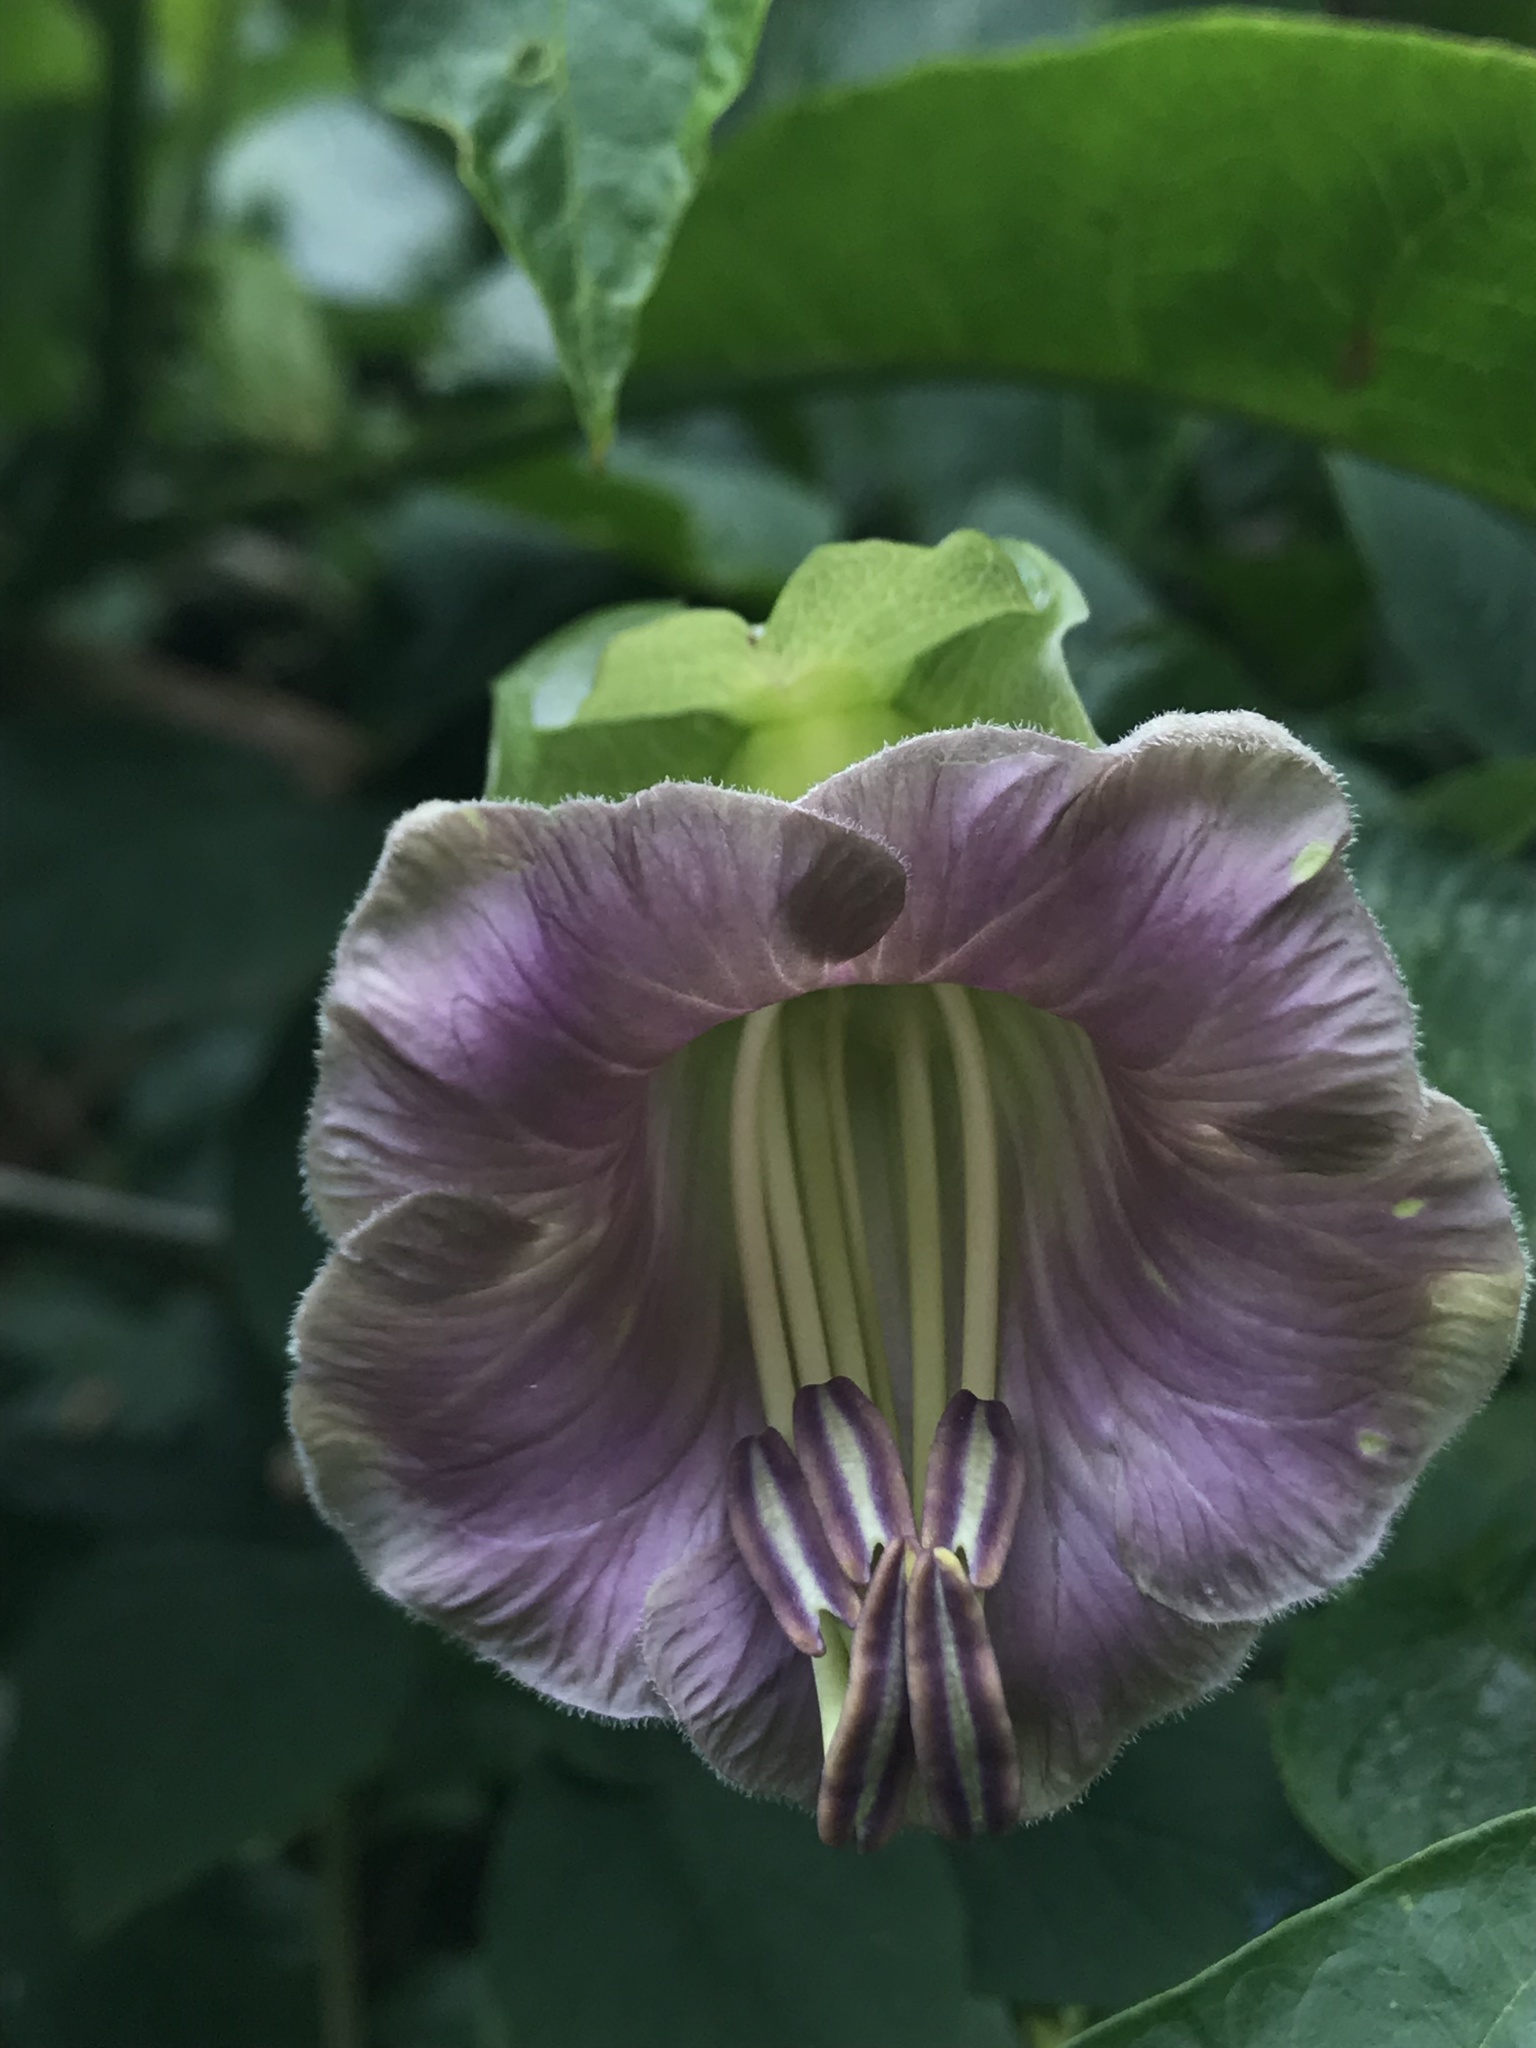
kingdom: Plantae
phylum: Tracheophyta
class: Magnoliopsida
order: Ericales
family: Polemoniaceae
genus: Cobaea
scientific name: Cobaea scandens
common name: Cup-and-saucer-vine
